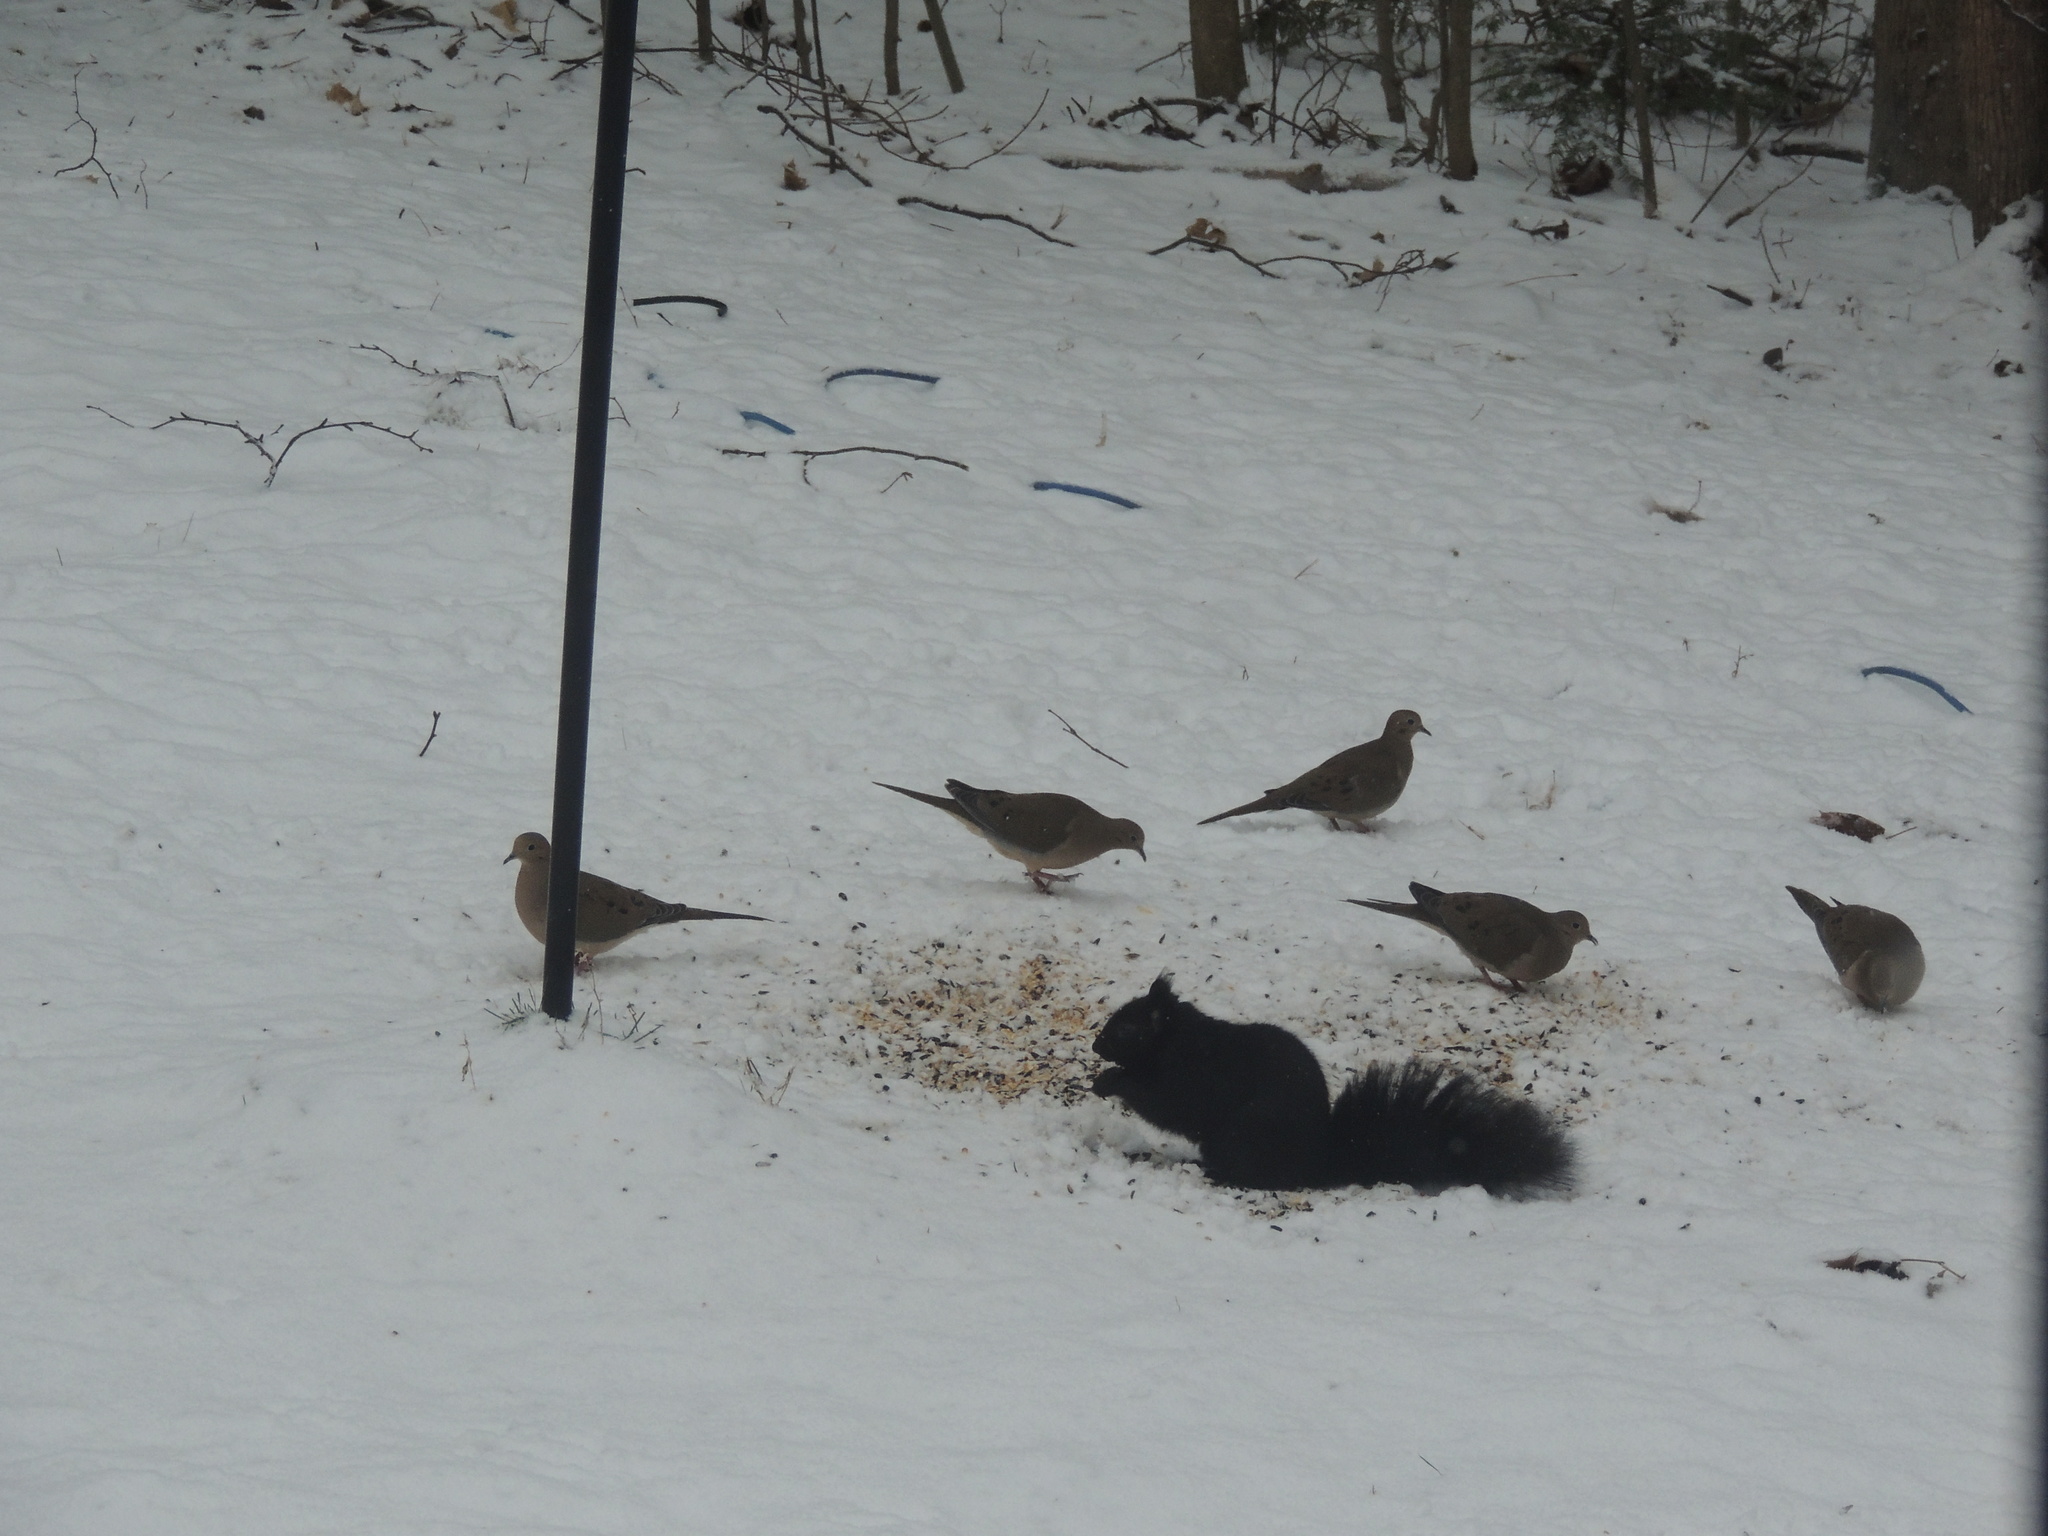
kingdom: Animalia
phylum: Chordata
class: Mammalia
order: Rodentia
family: Sciuridae
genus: Sciurus
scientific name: Sciurus carolinensis
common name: Eastern gray squirrel
